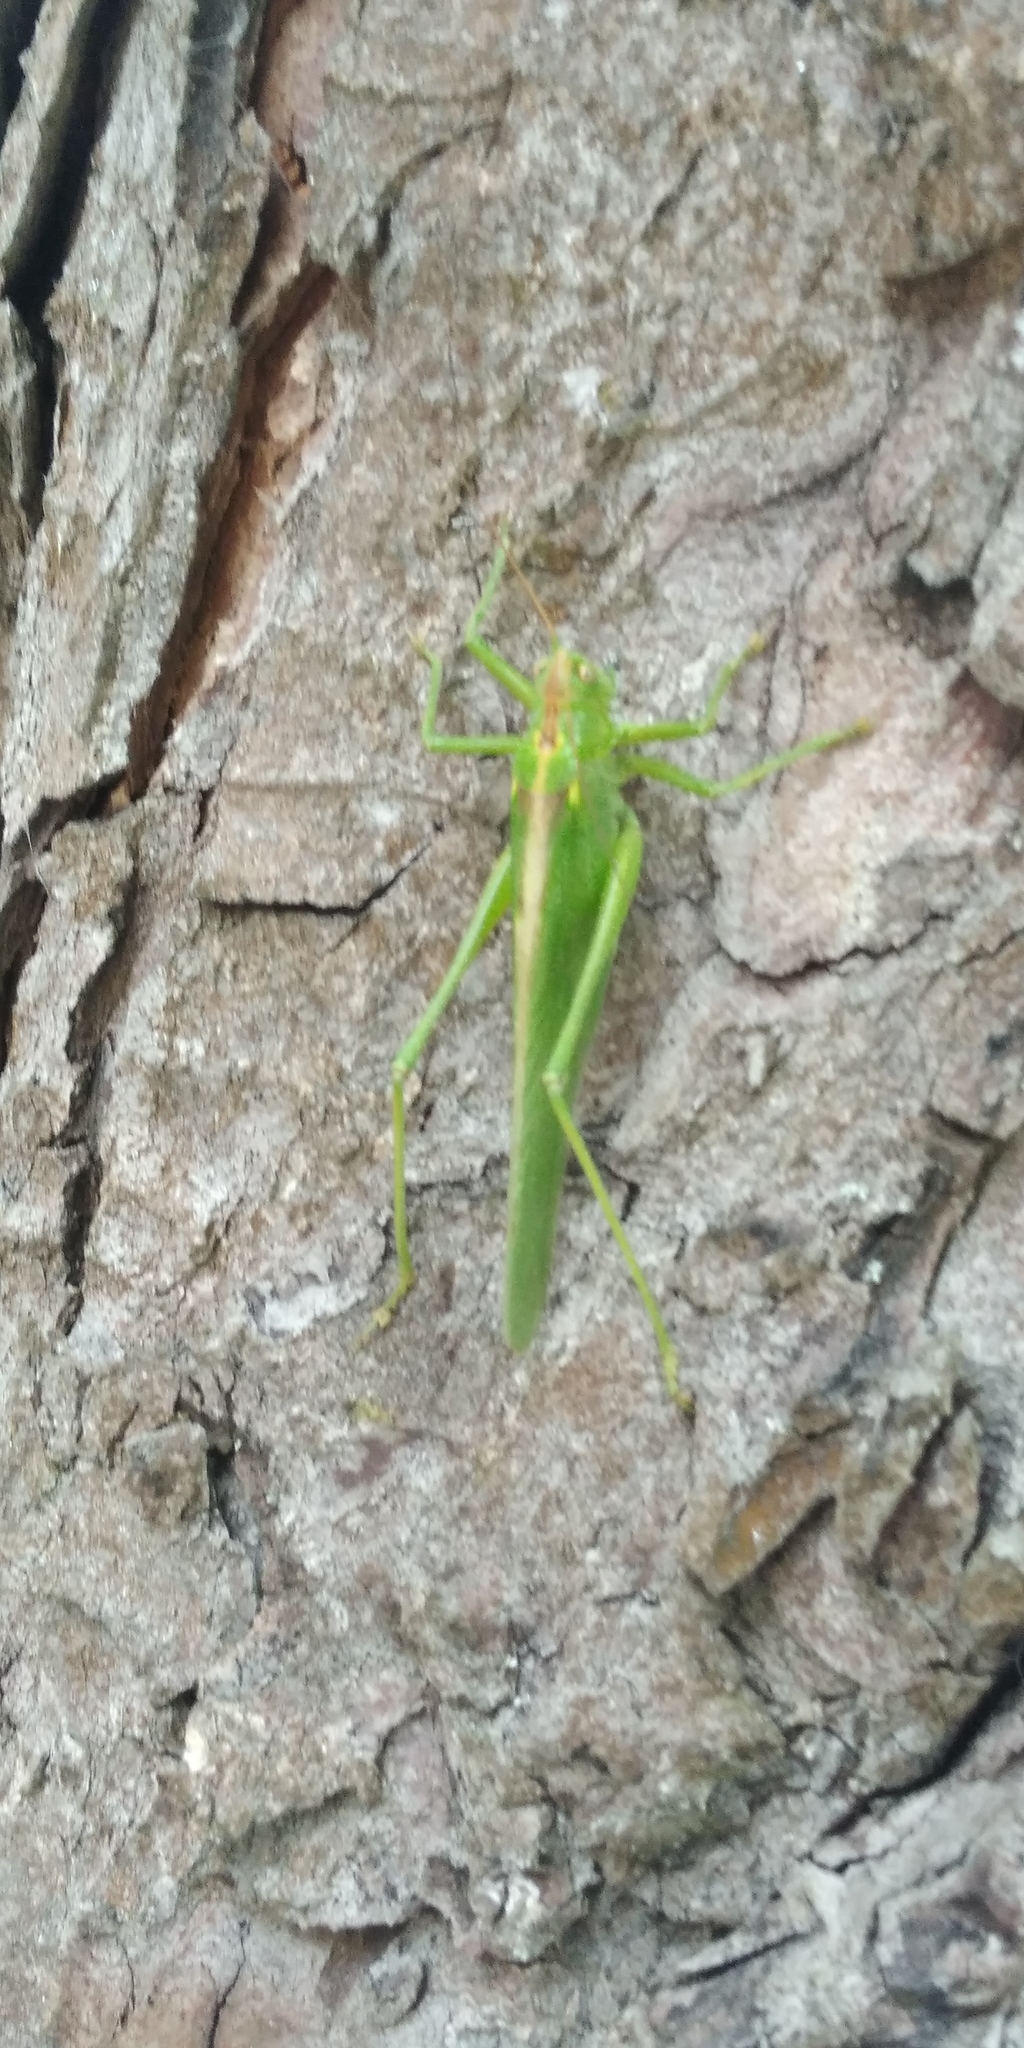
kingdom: Animalia
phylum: Arthropoda
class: Insecta
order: Orthoptera
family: Tettigoniidae
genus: Tettigonia
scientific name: Tettigonia viridissima
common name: Great green bush-cricket
